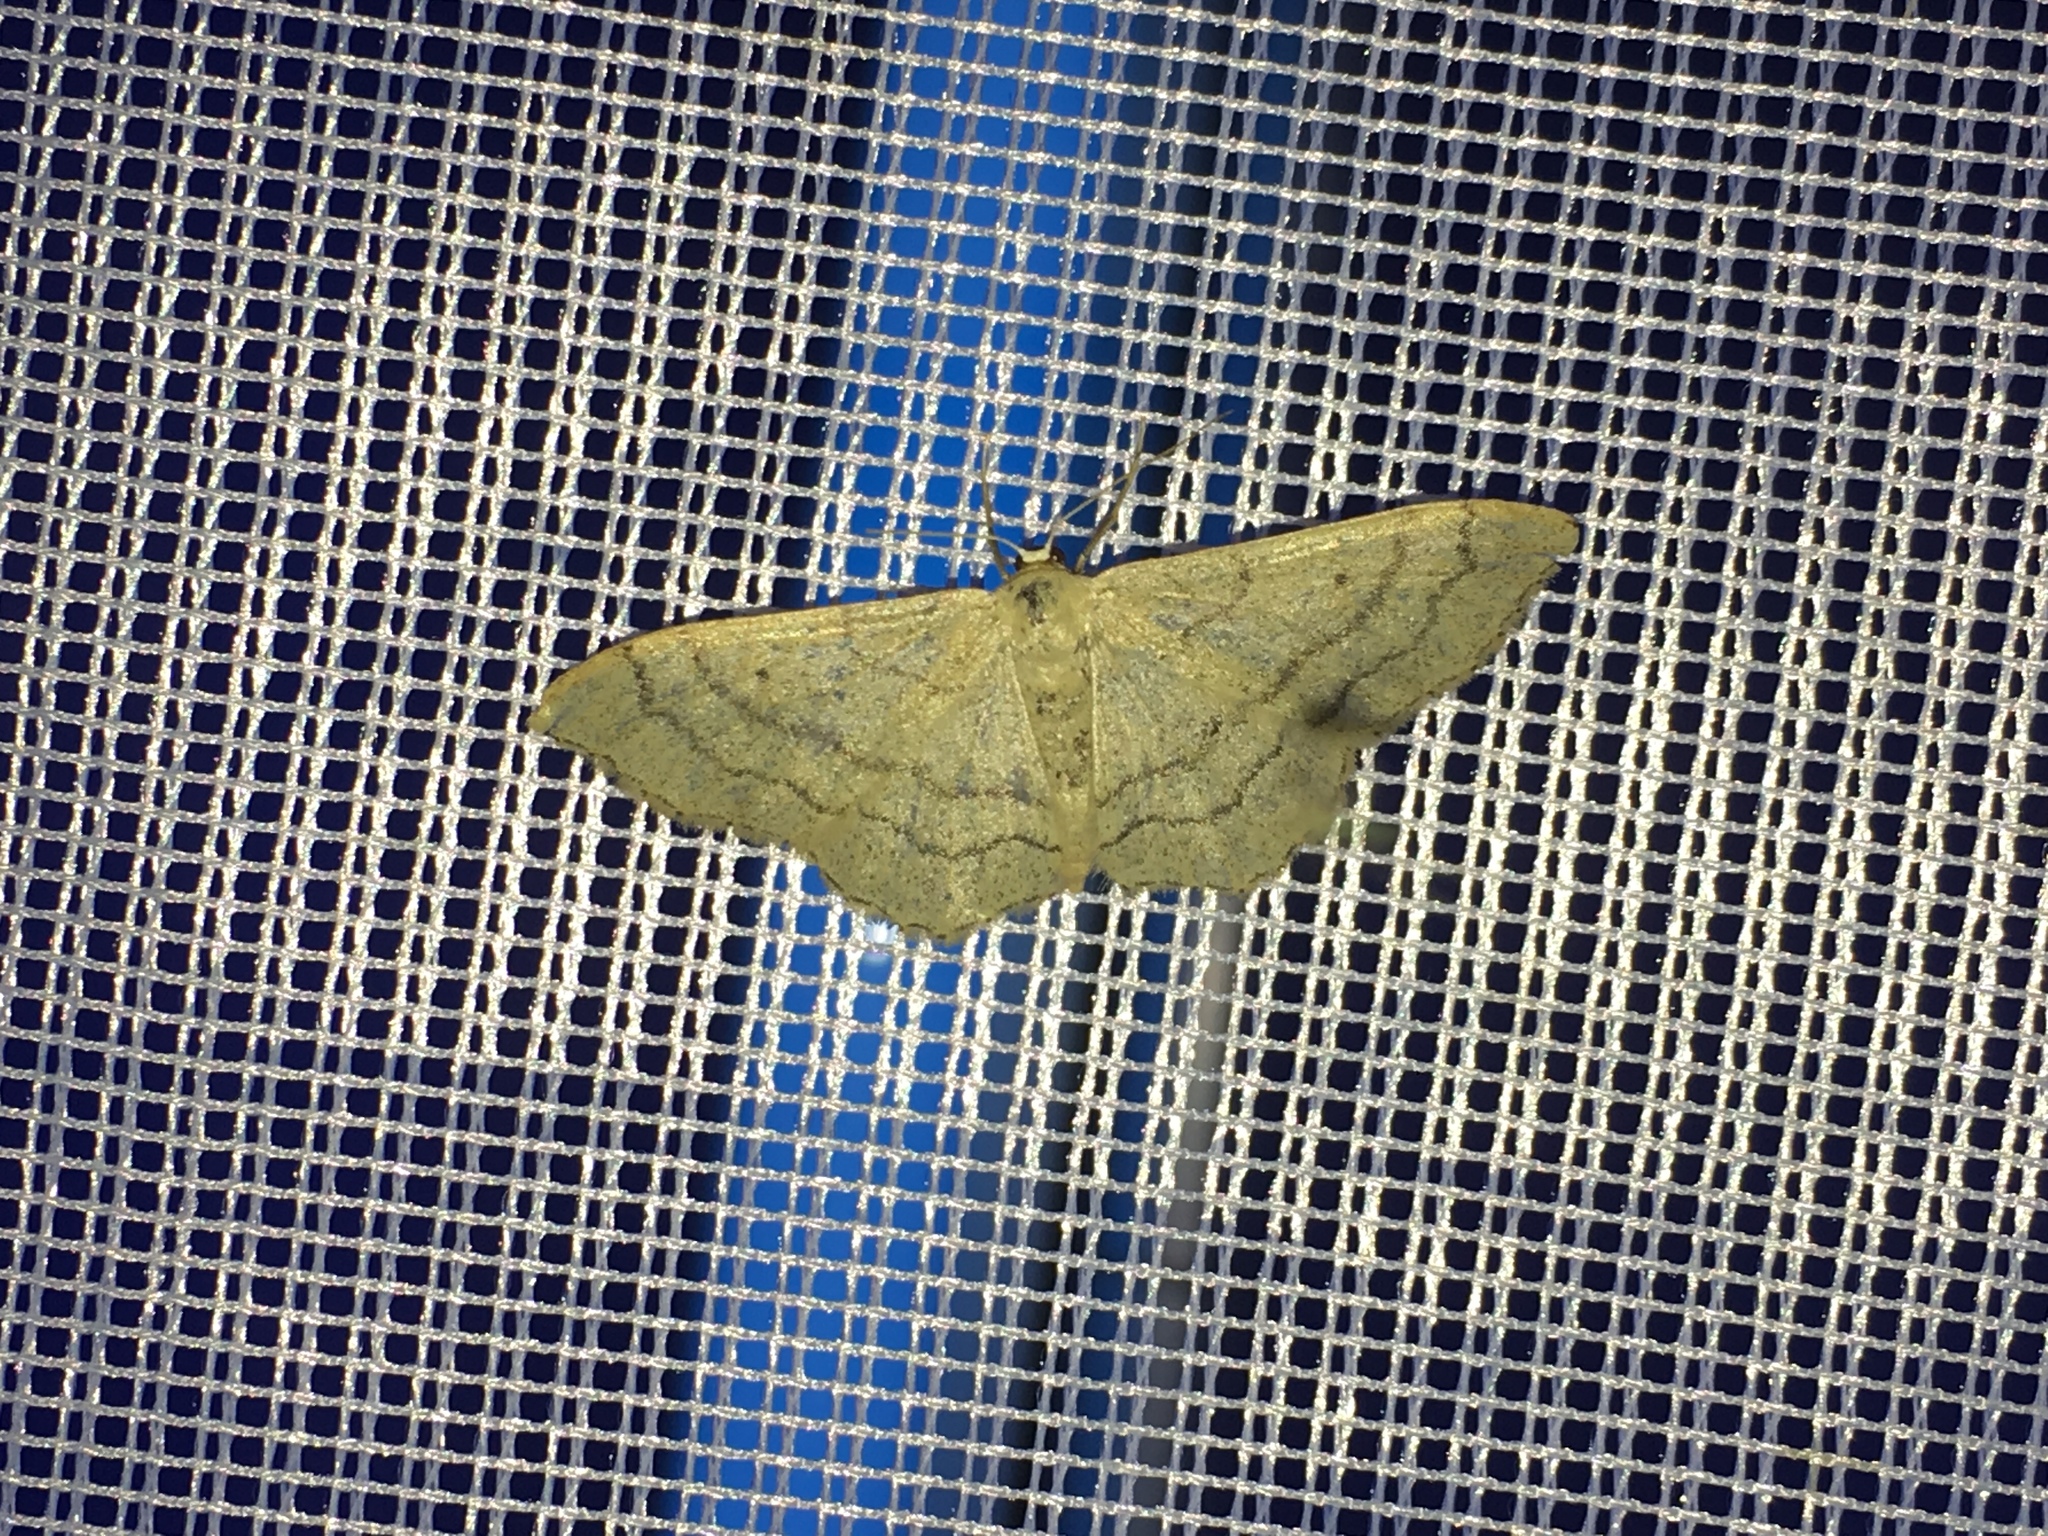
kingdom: Animalia
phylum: Arthropoda
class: Insecta
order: Lepidoptera
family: Geometridae
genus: Idaea
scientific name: Idaea aversata
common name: Riband wave
